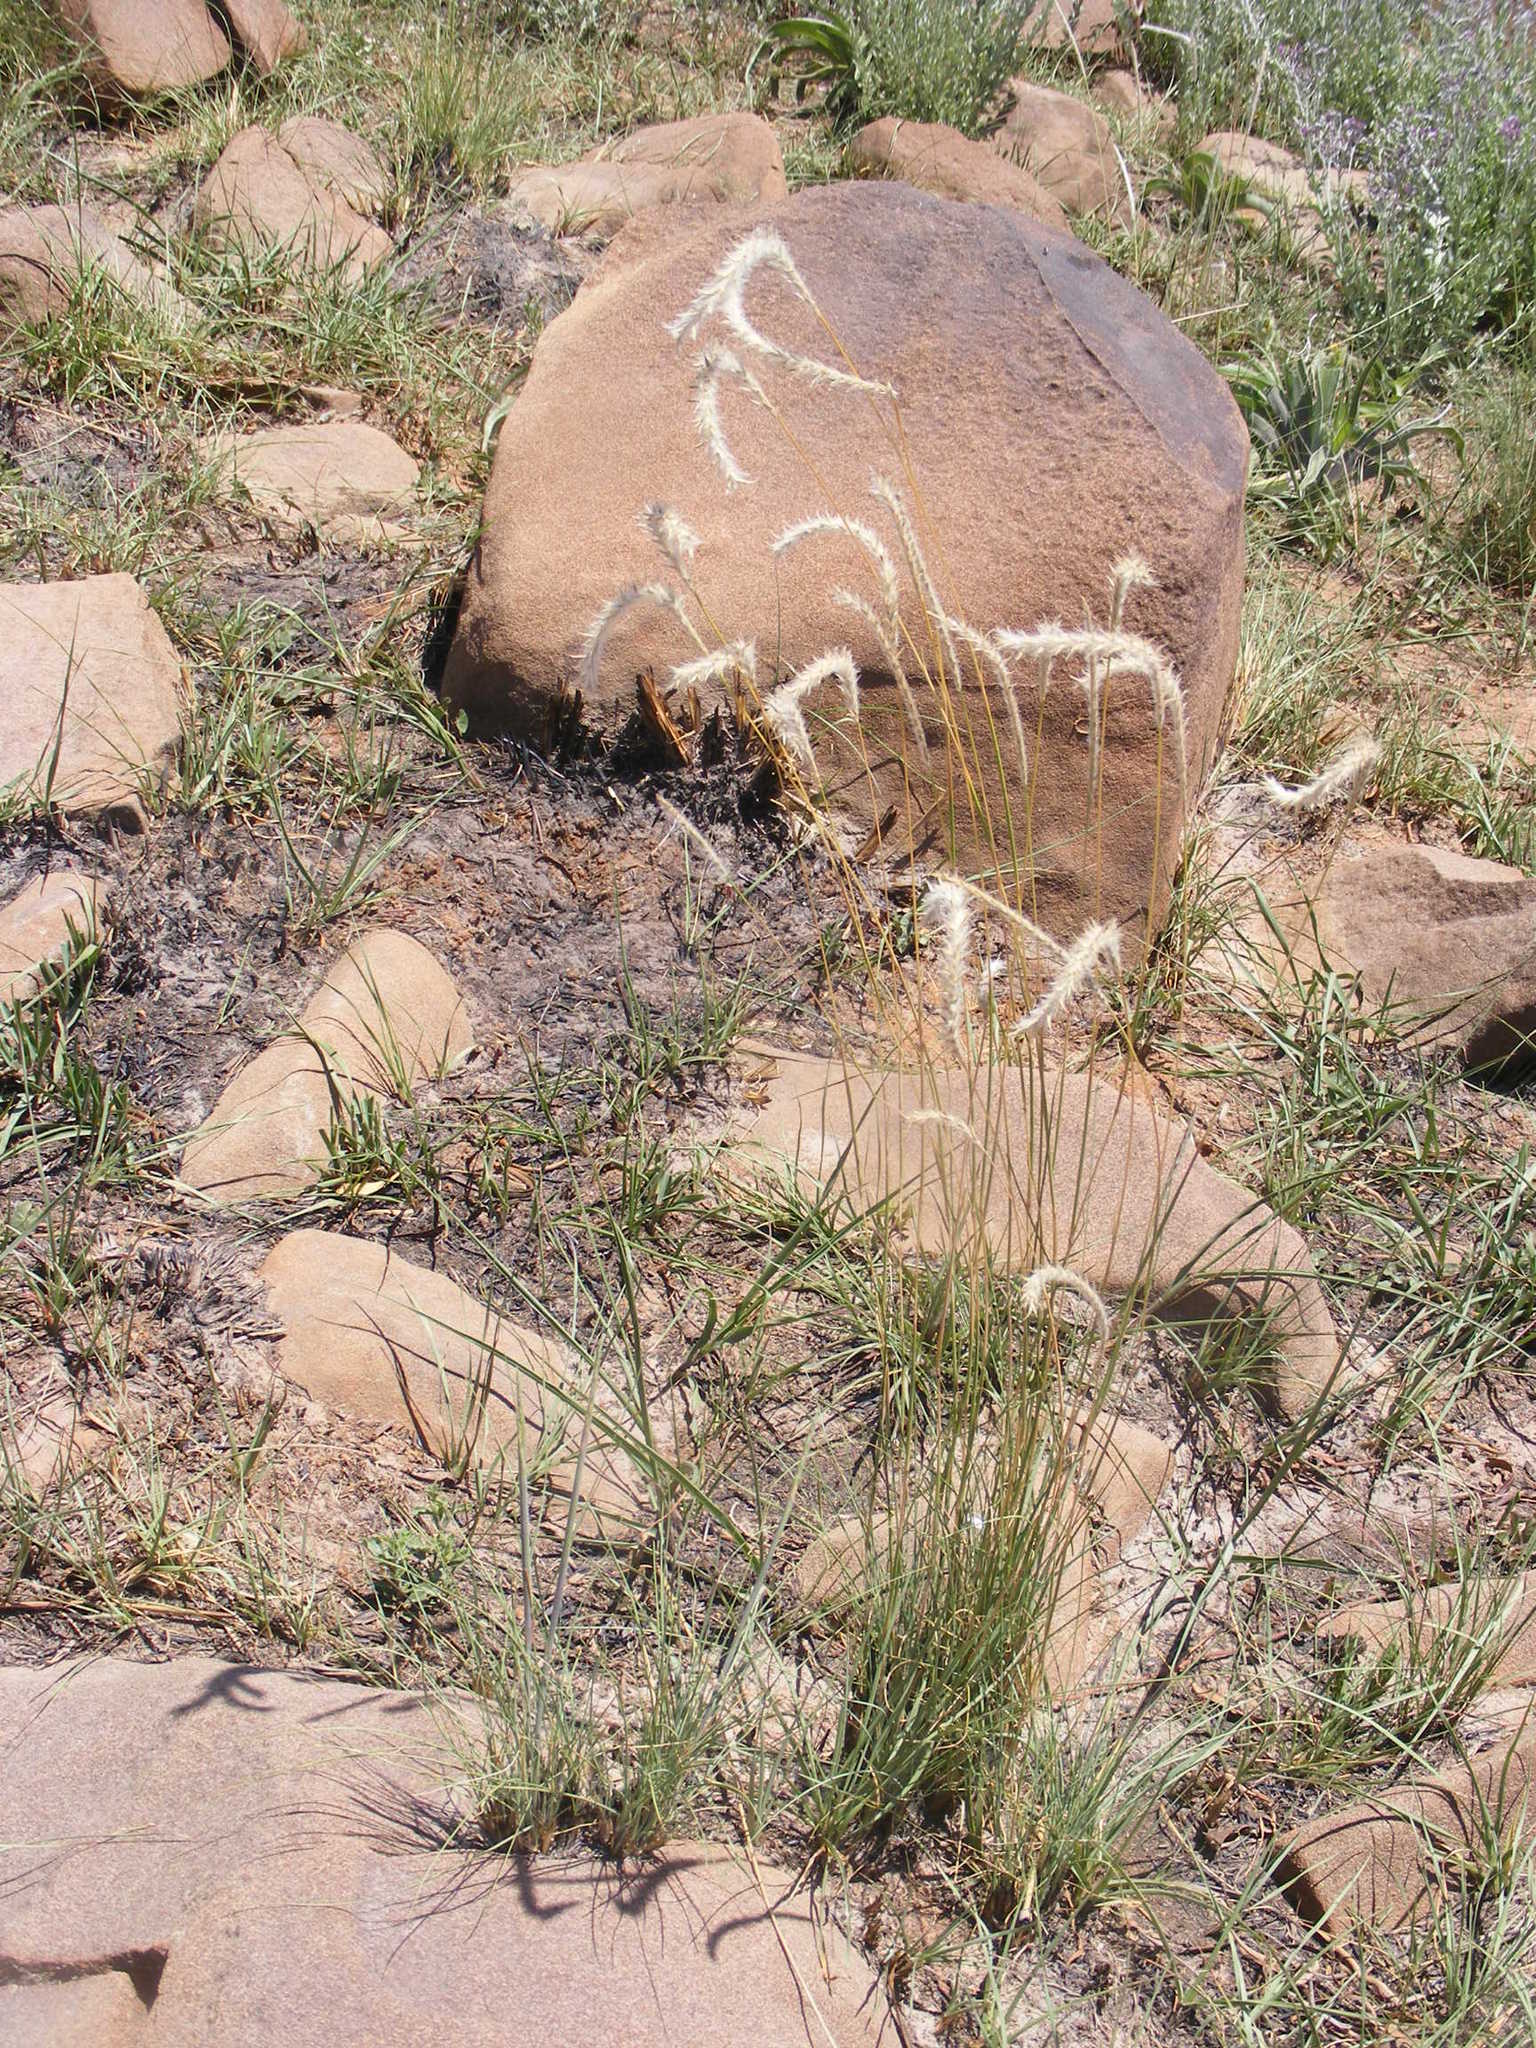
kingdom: Plantae
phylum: Tracheophyta
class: Liliopsida
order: Poales
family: Poaceae
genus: Elionurus
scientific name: Elionurus muticus
